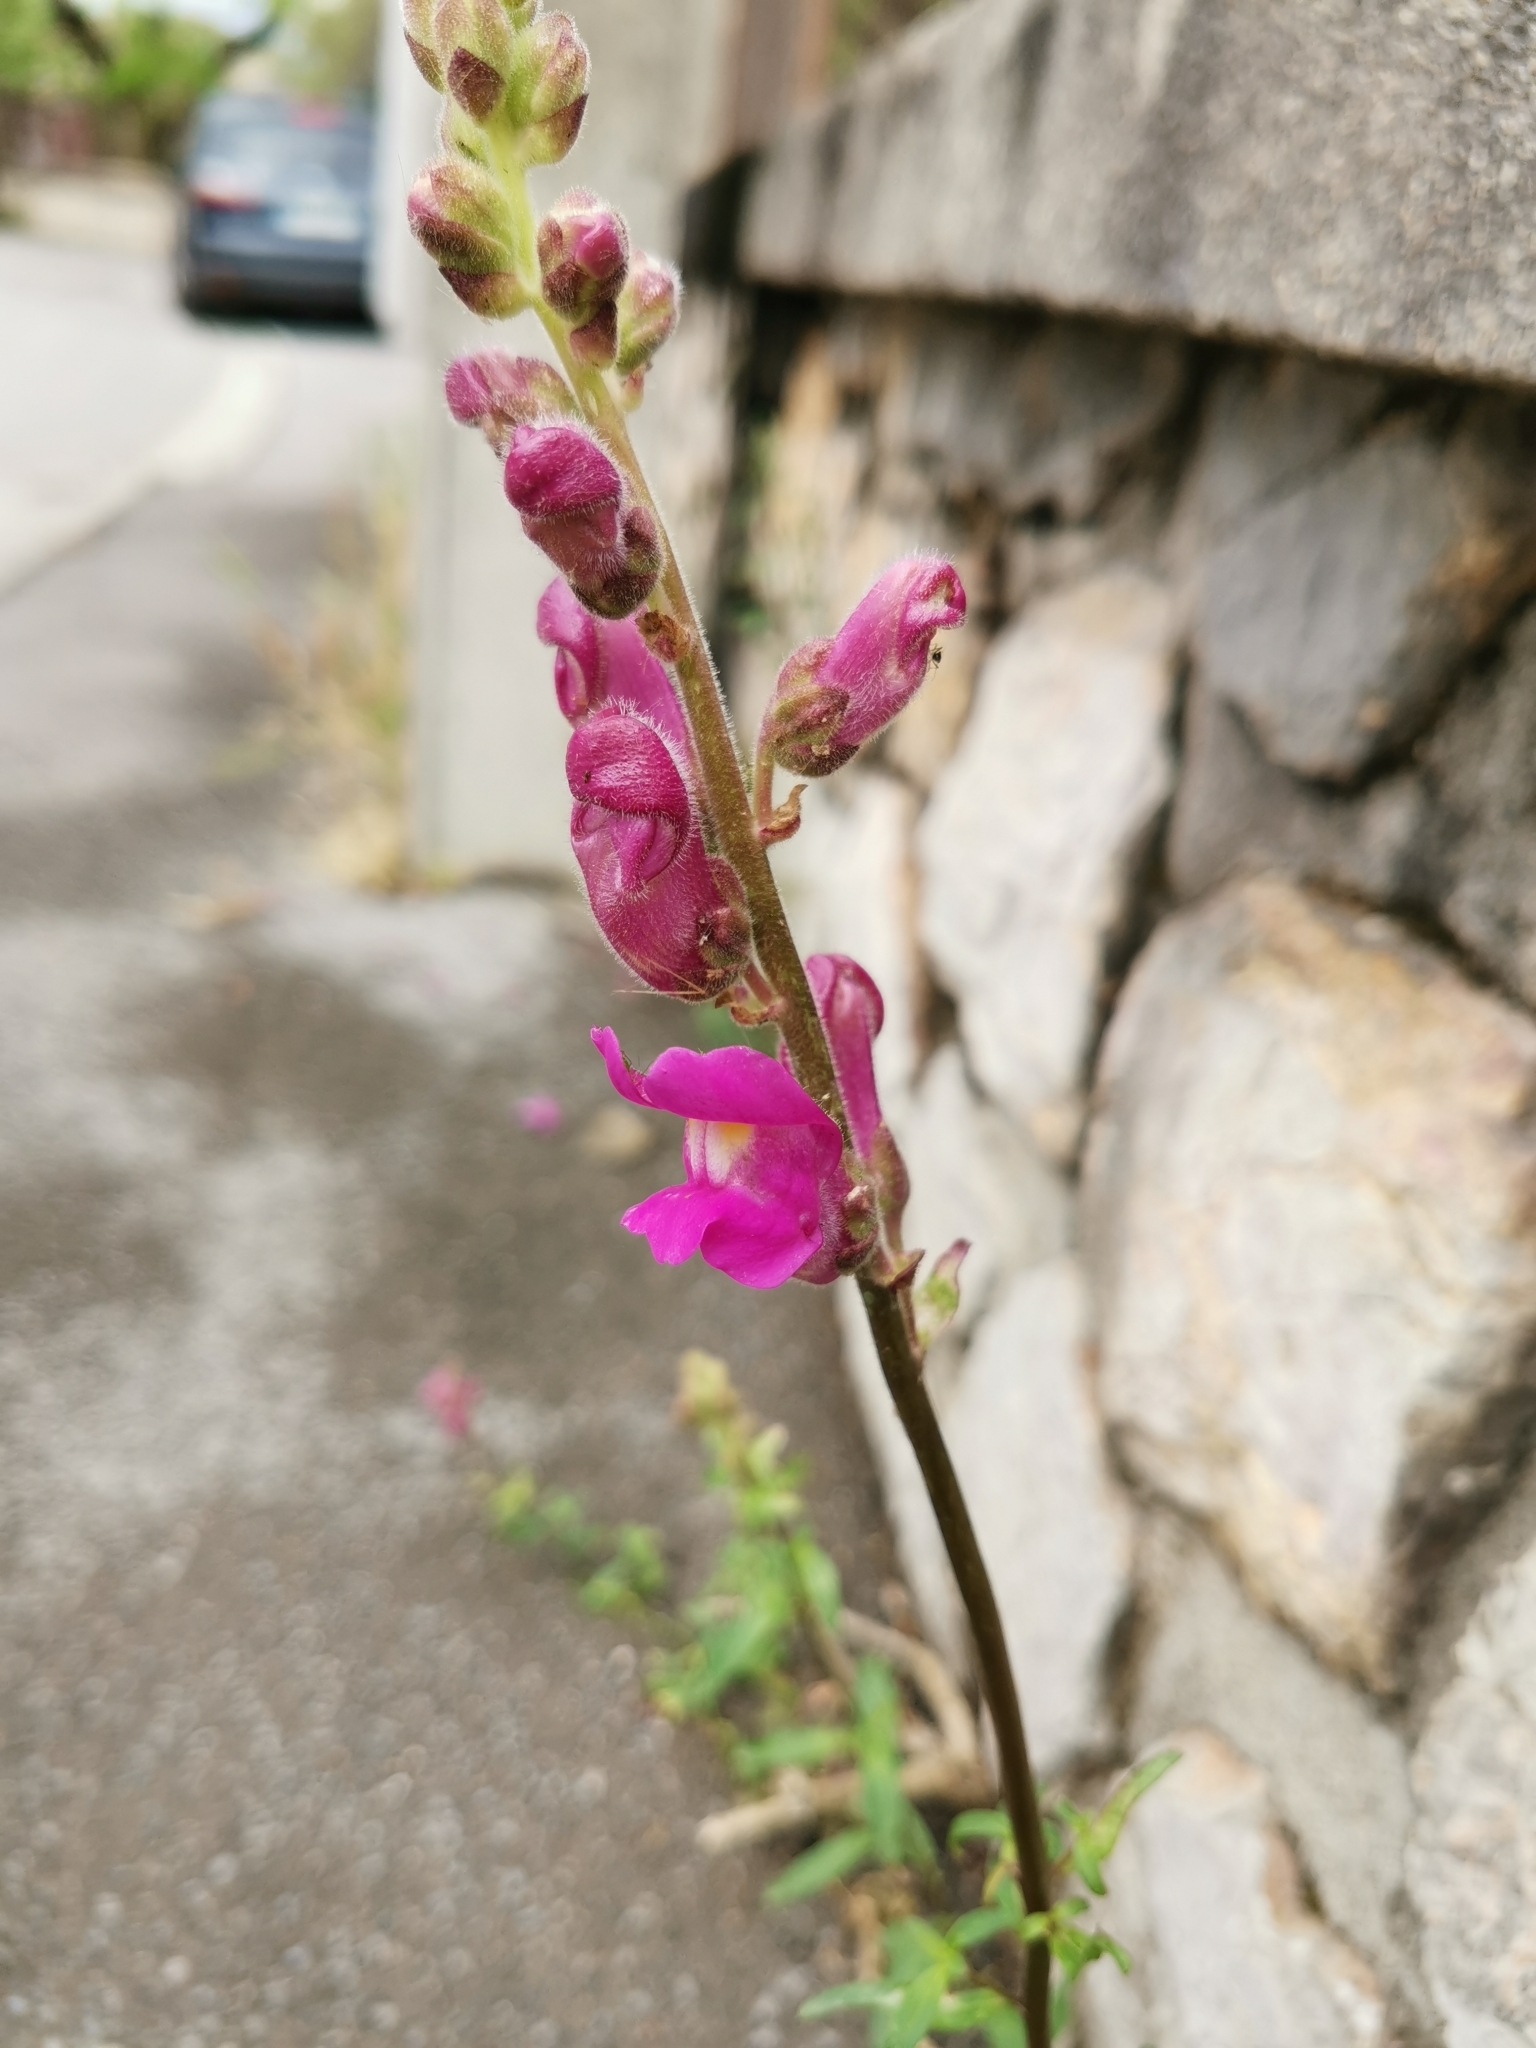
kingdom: Plantae
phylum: Tracheophyta
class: Magnoliopsida
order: Lamiales
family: Plantaginaceae
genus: Antirrhinum
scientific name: Antirrhinum majus
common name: Snapdragon
